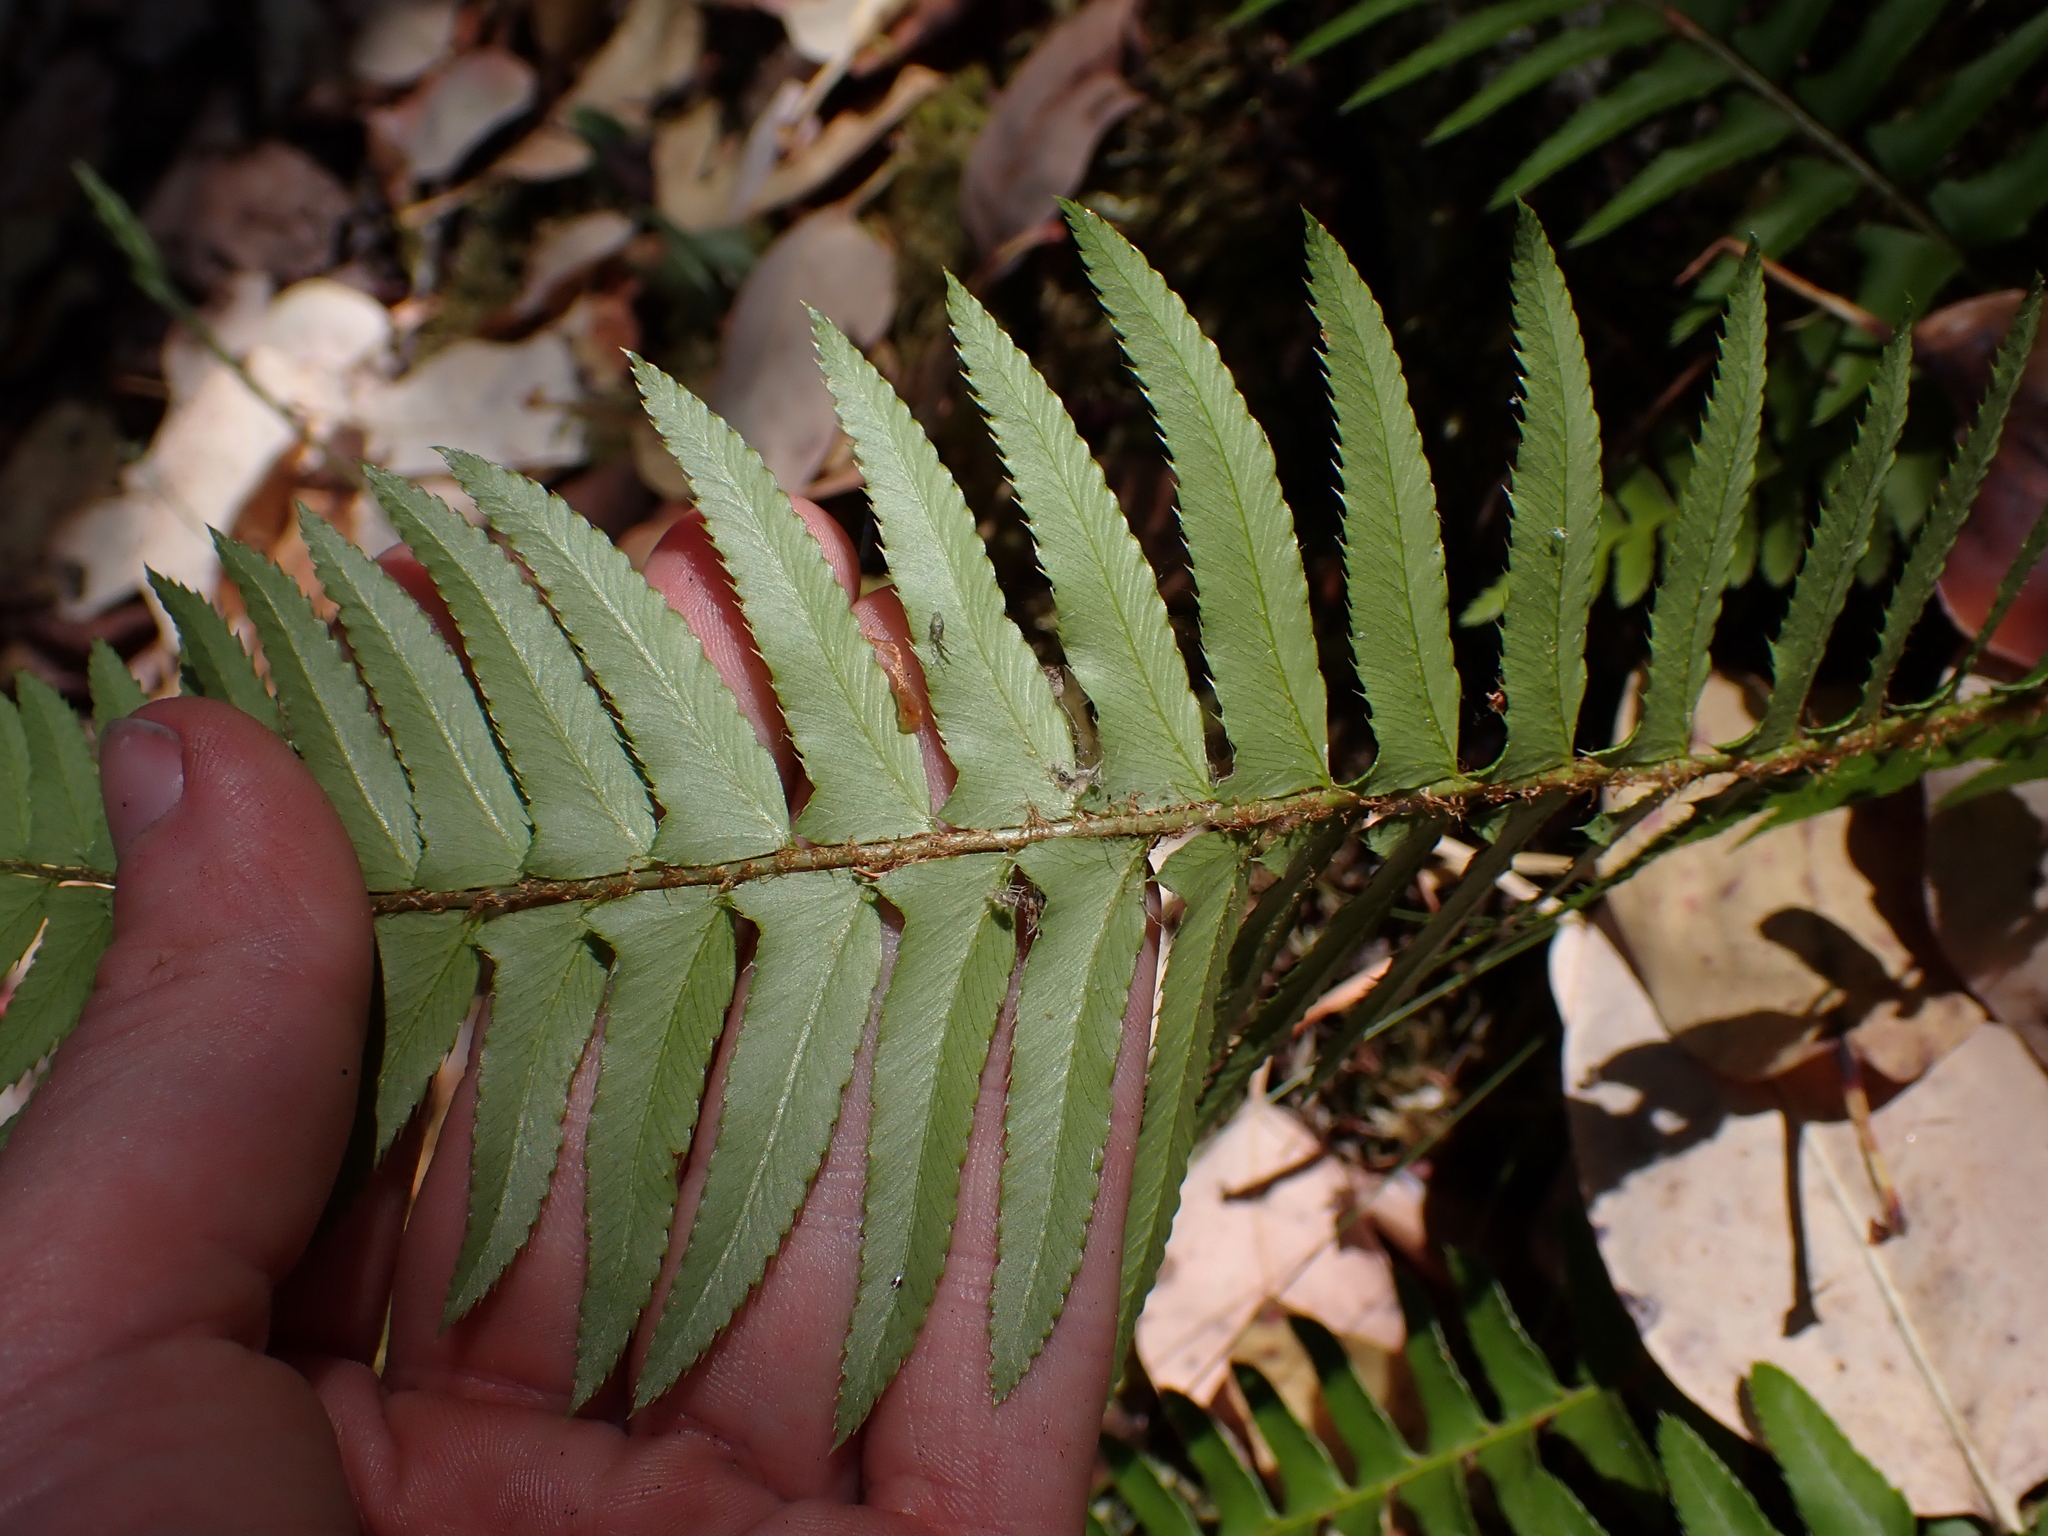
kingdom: Plantae
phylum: Tracheophyta
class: Polypodiopsida
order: Polypodiales
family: Dryopteridaceae
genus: Polystichum
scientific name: Polystichum munitum
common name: Western sword-fern
